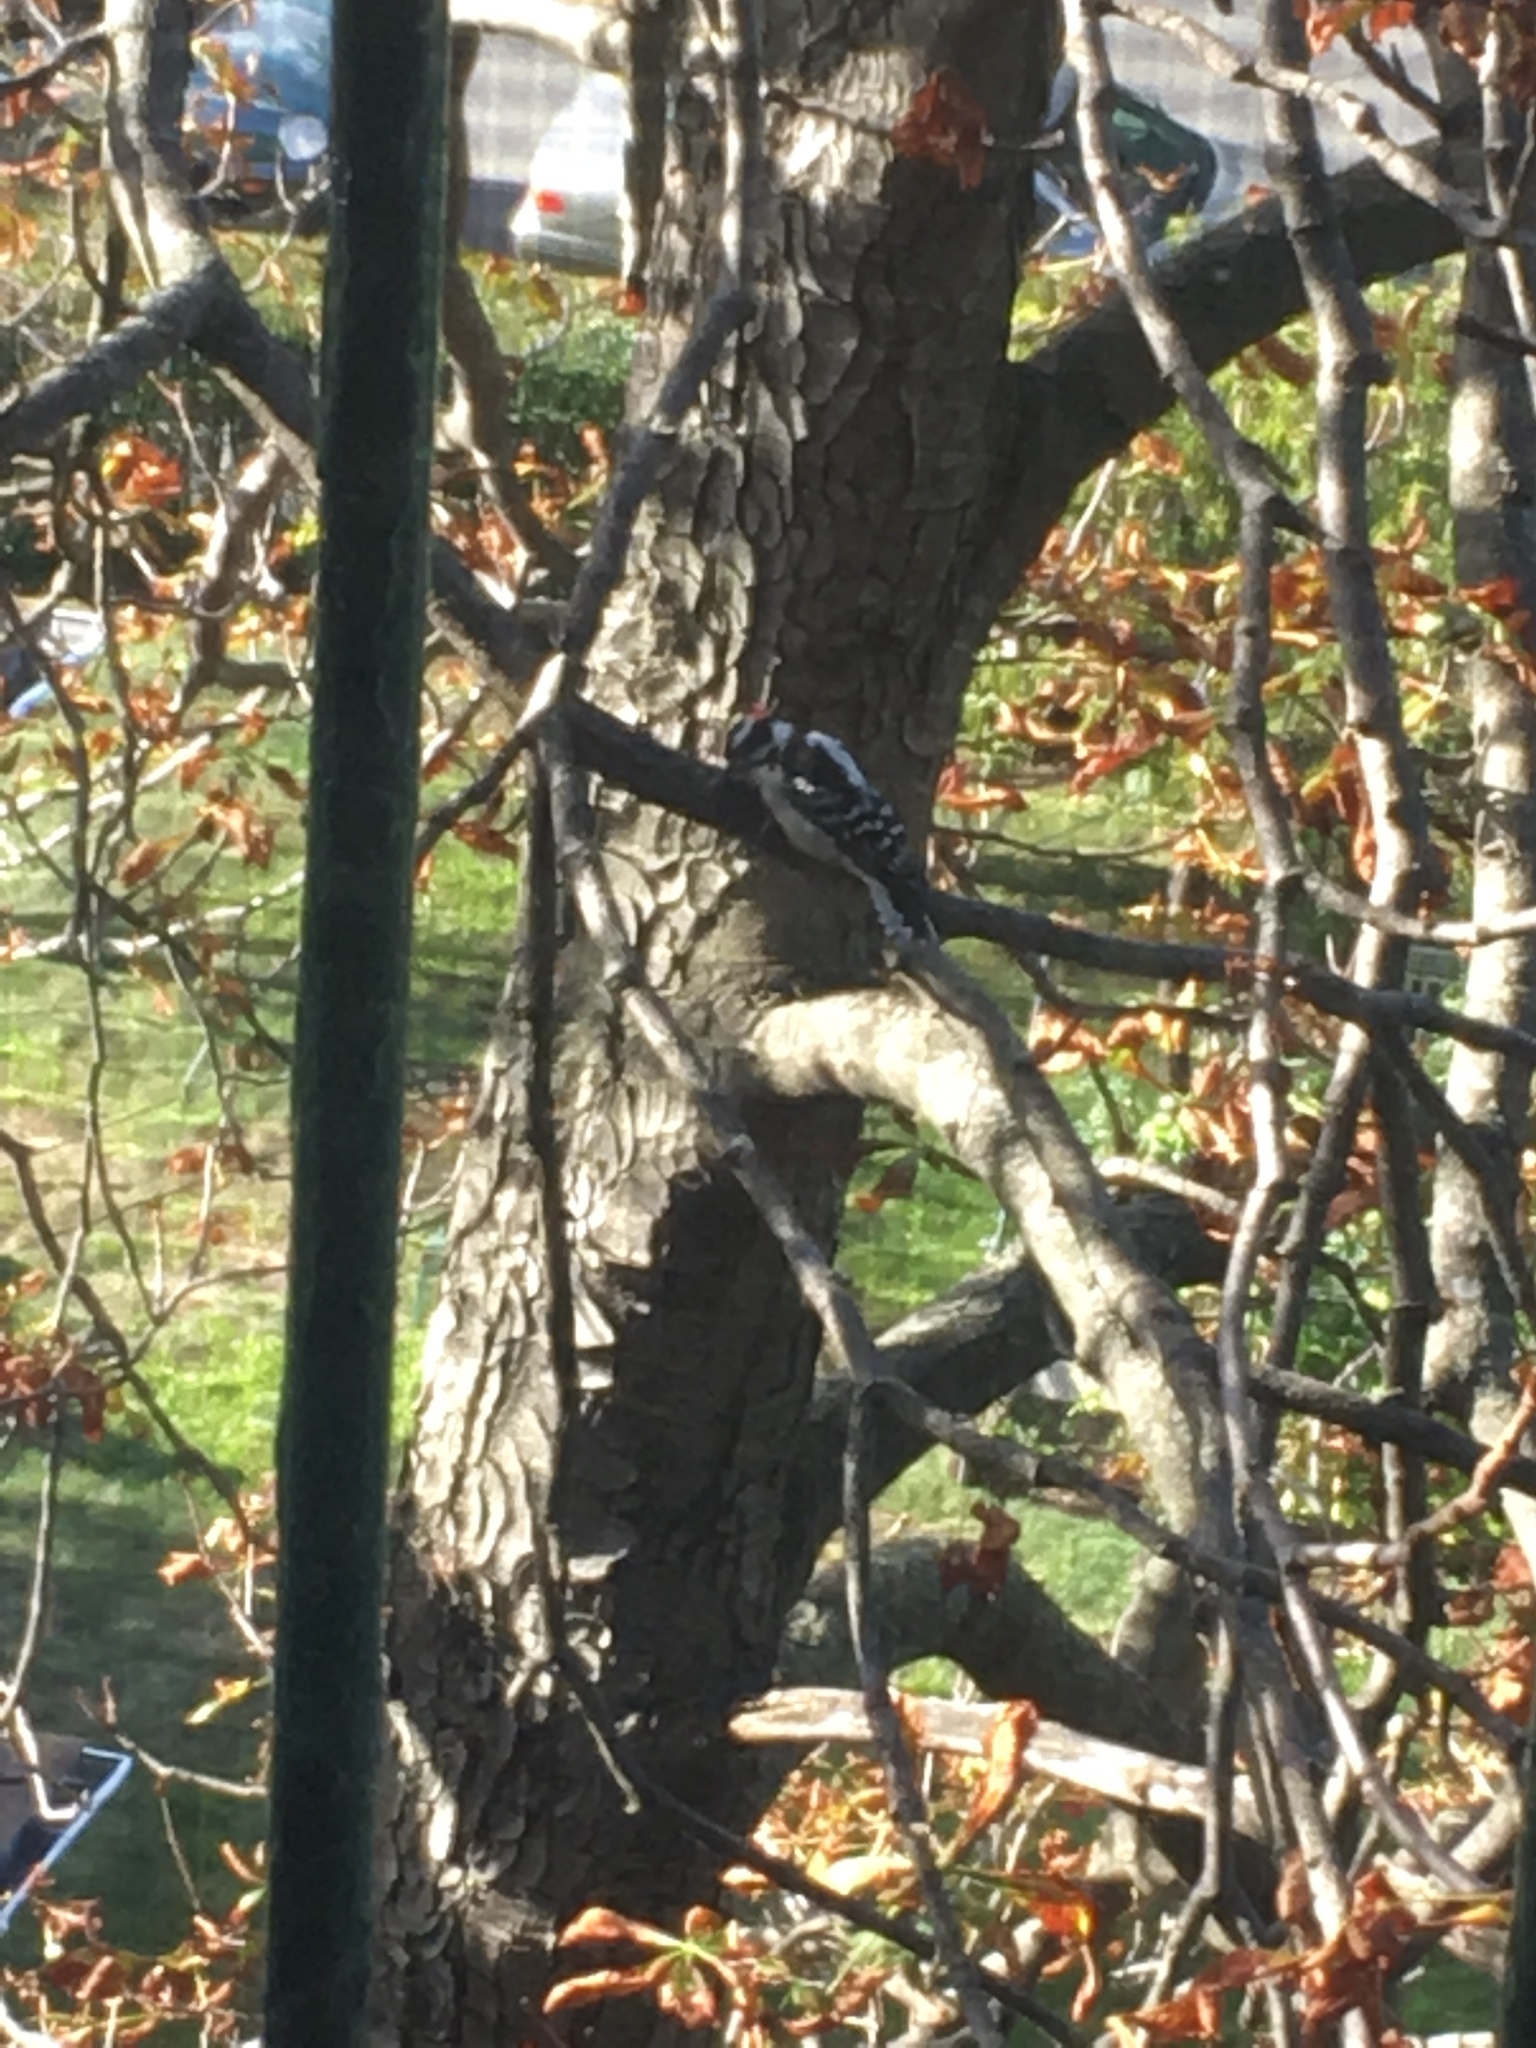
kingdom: Animalia
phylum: Chordata
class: Aves
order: Piciformes
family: Picidae
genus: Dryobates
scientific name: Dryobates pubescens
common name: Downy woodpecker
